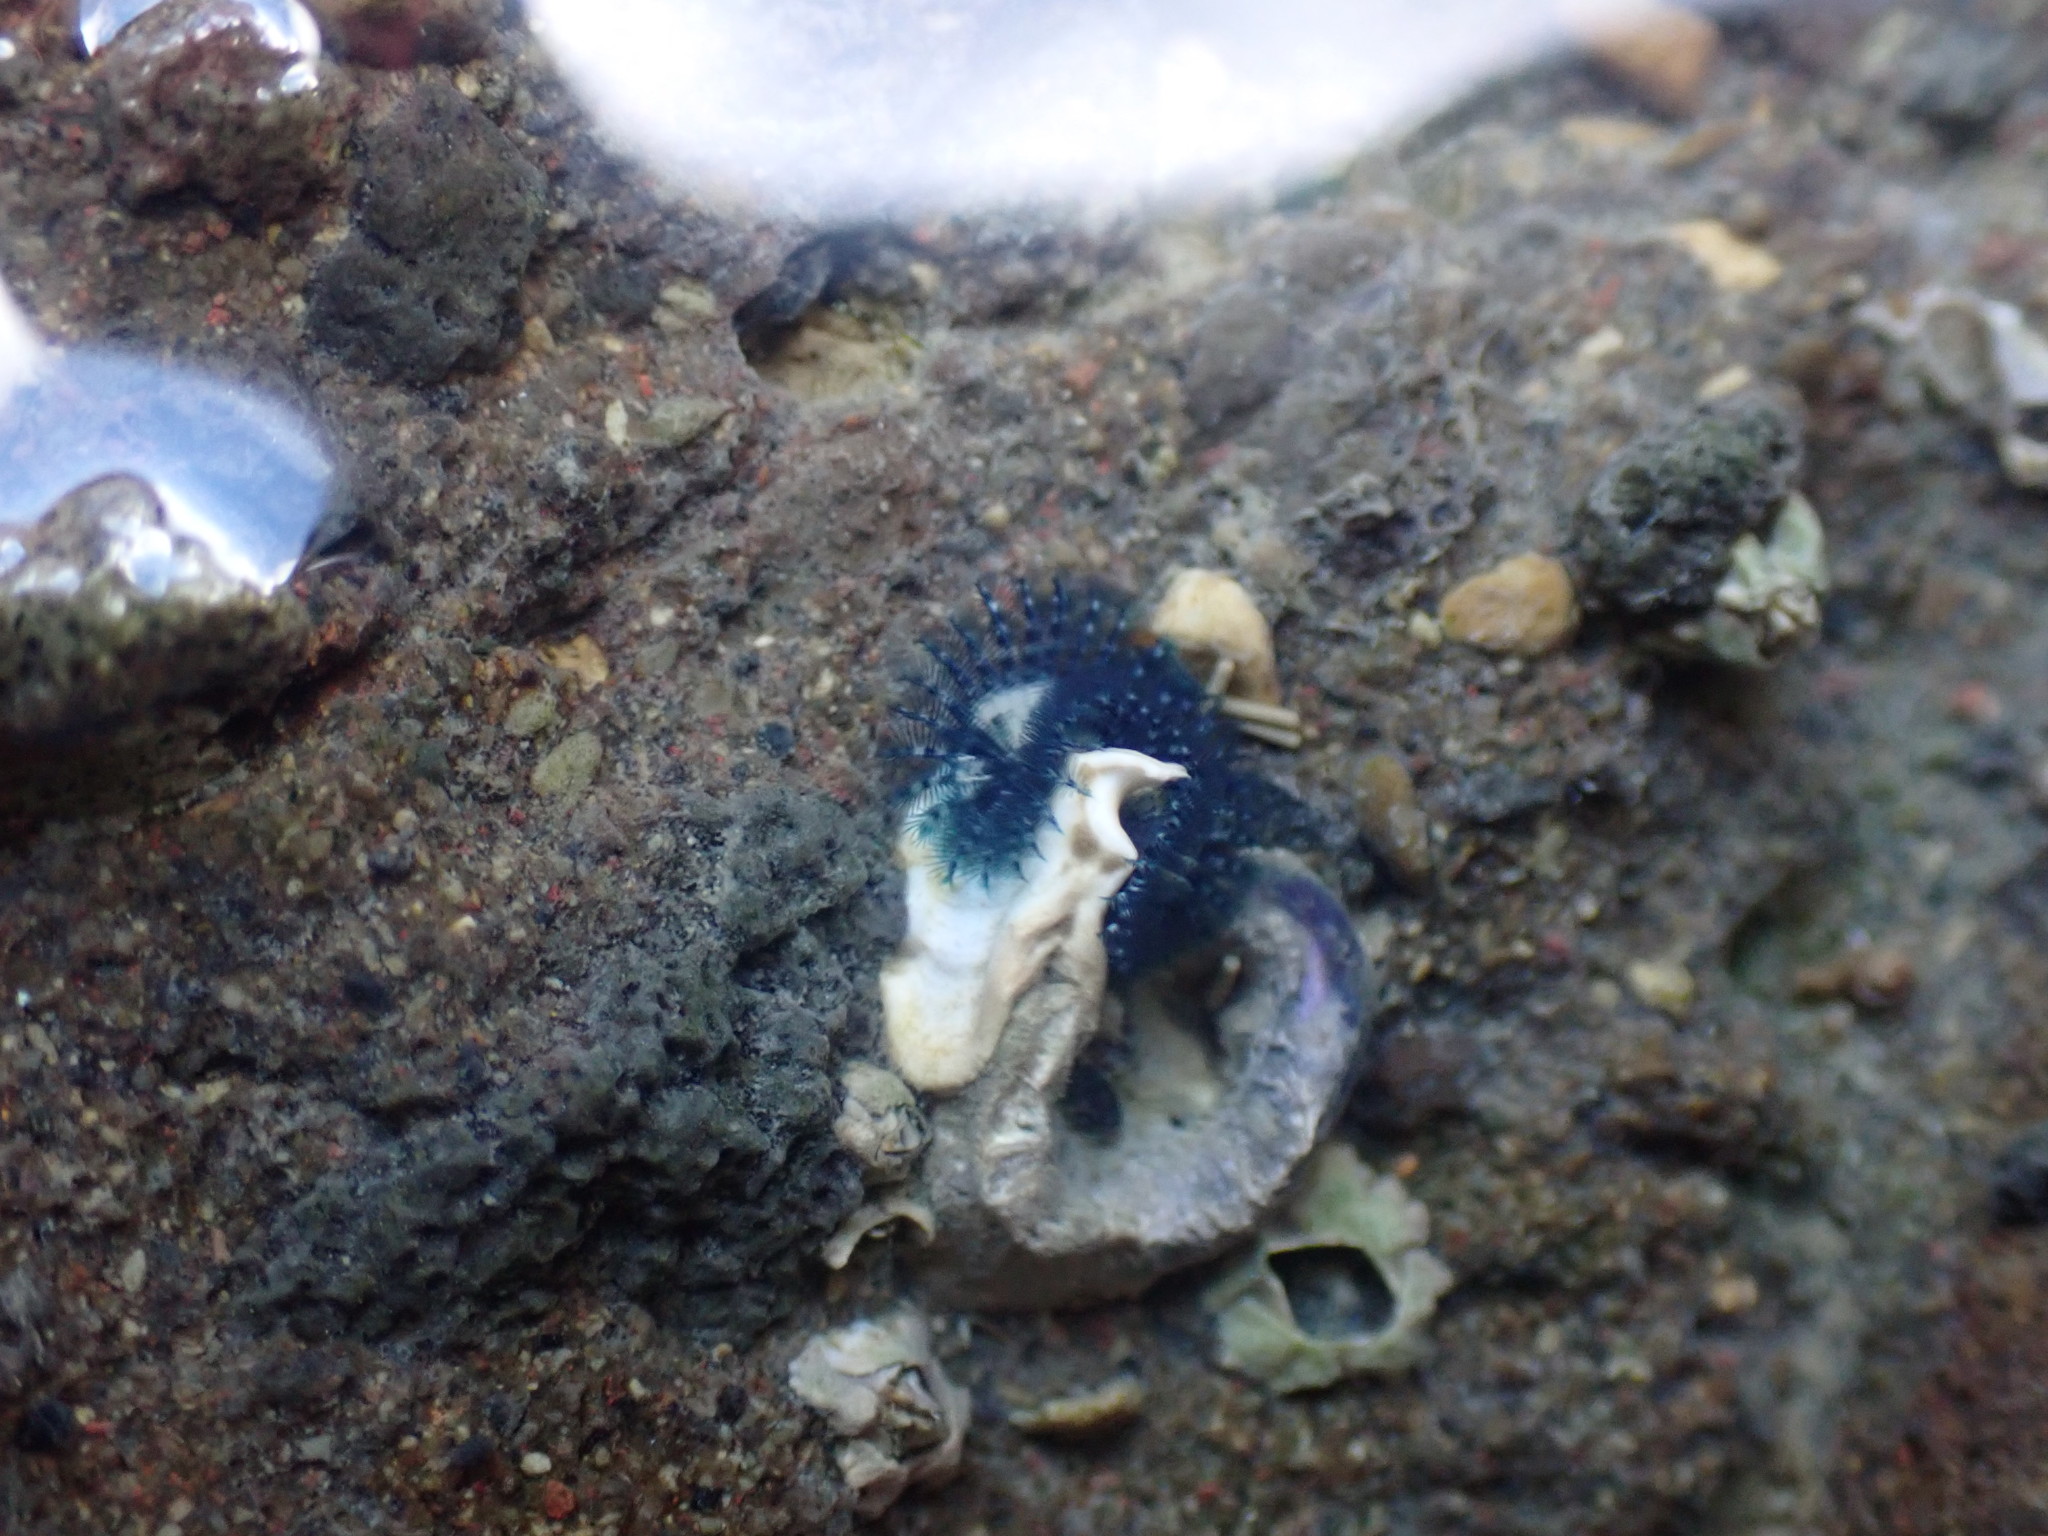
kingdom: Animalia
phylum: Annelida
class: Polychaeta
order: Sabellida
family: Serpulidae
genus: Spirobranchus
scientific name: Spirobranchus cariniferus
